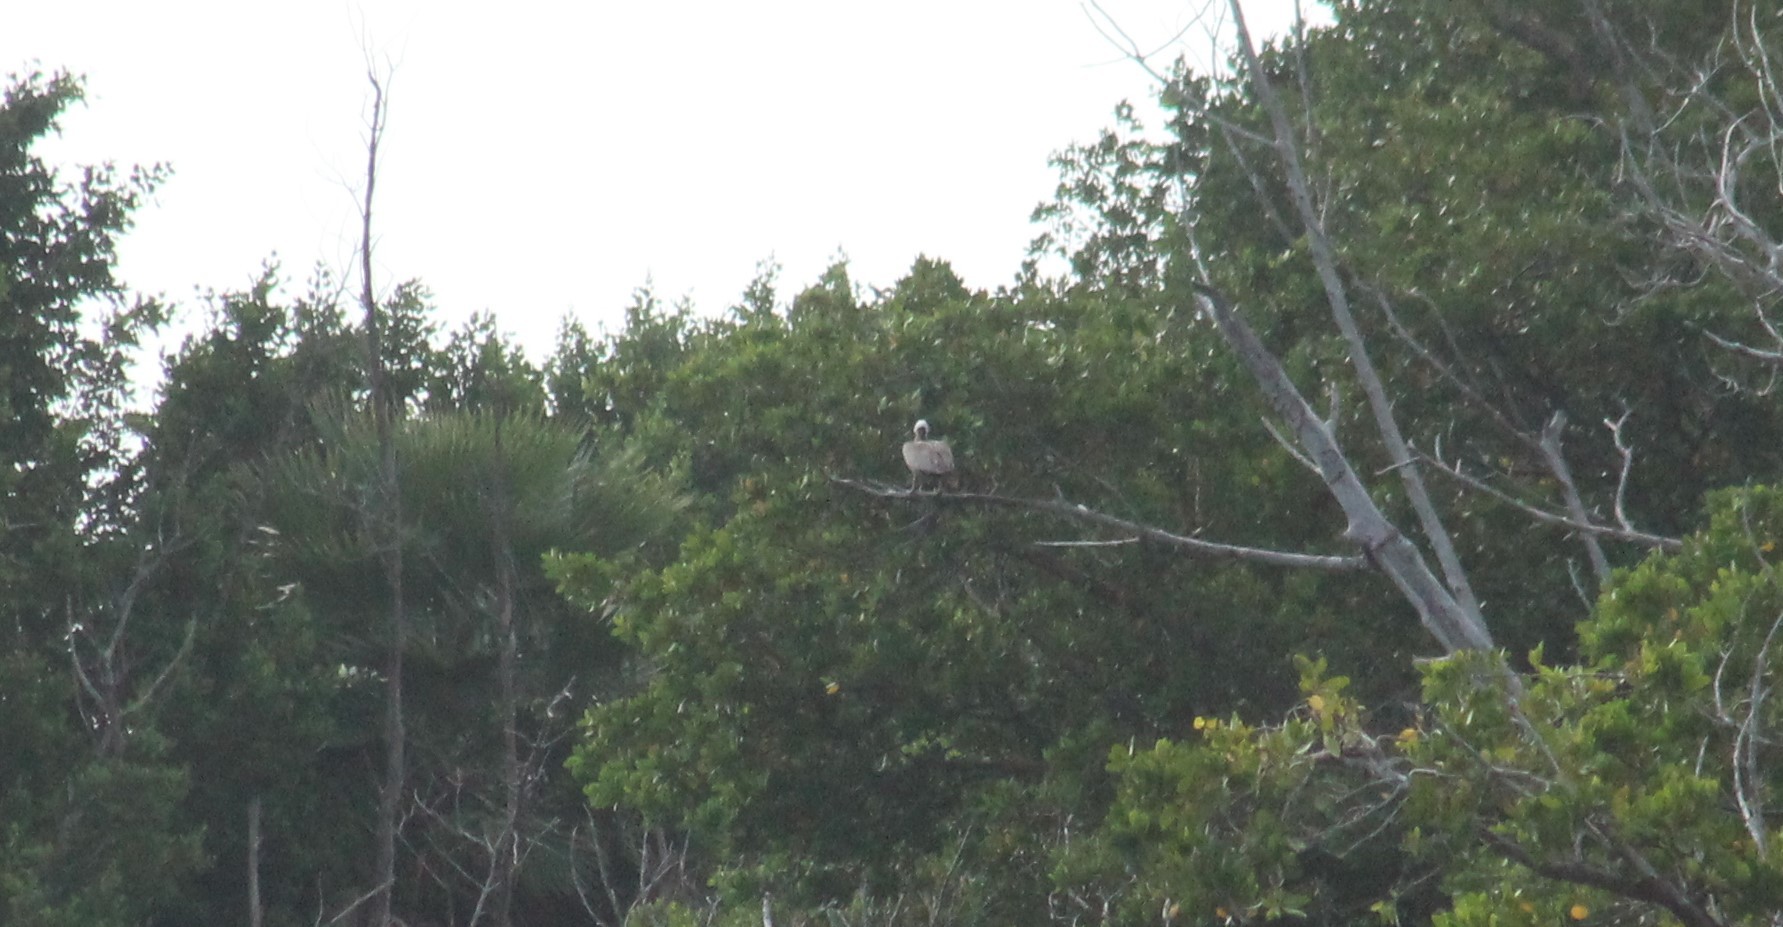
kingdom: Animalia
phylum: Chordata
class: Aves
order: Pelecaniformes
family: Pelecanidae
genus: Pelecanus
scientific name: Pelecanus occidentalis
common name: Brown pelican
